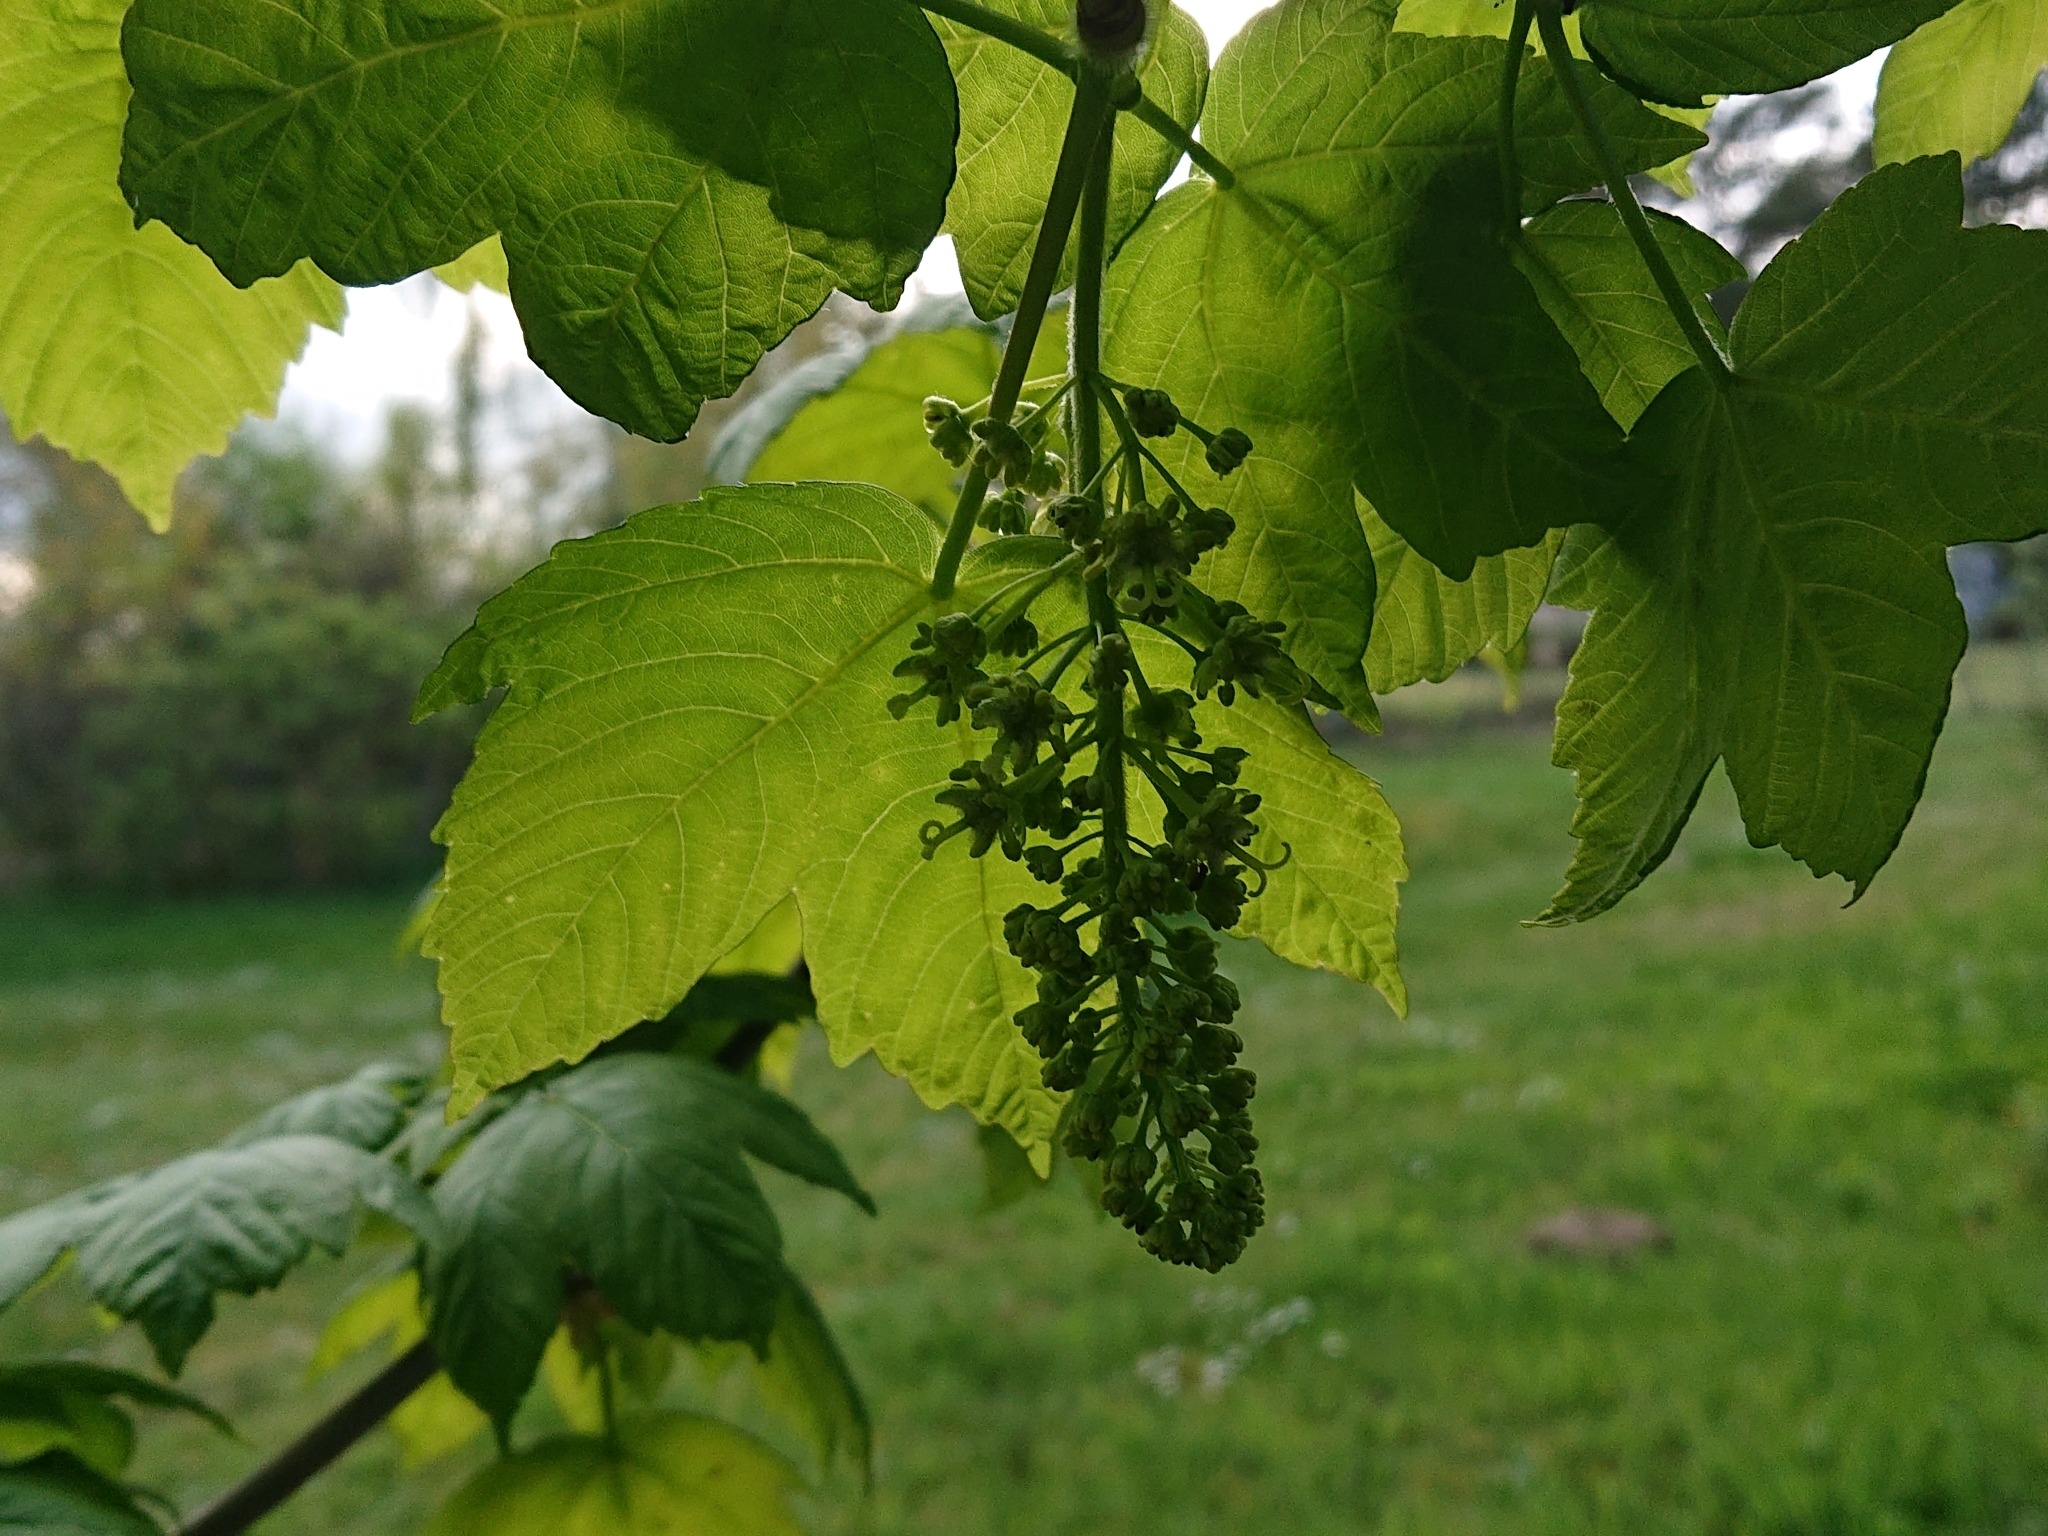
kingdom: Plantae
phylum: Tracheophyta
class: Magnoliopsida
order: Sapindales
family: Sapindaceae
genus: Acer
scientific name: Acer pseudoplatanus
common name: Sycamore
